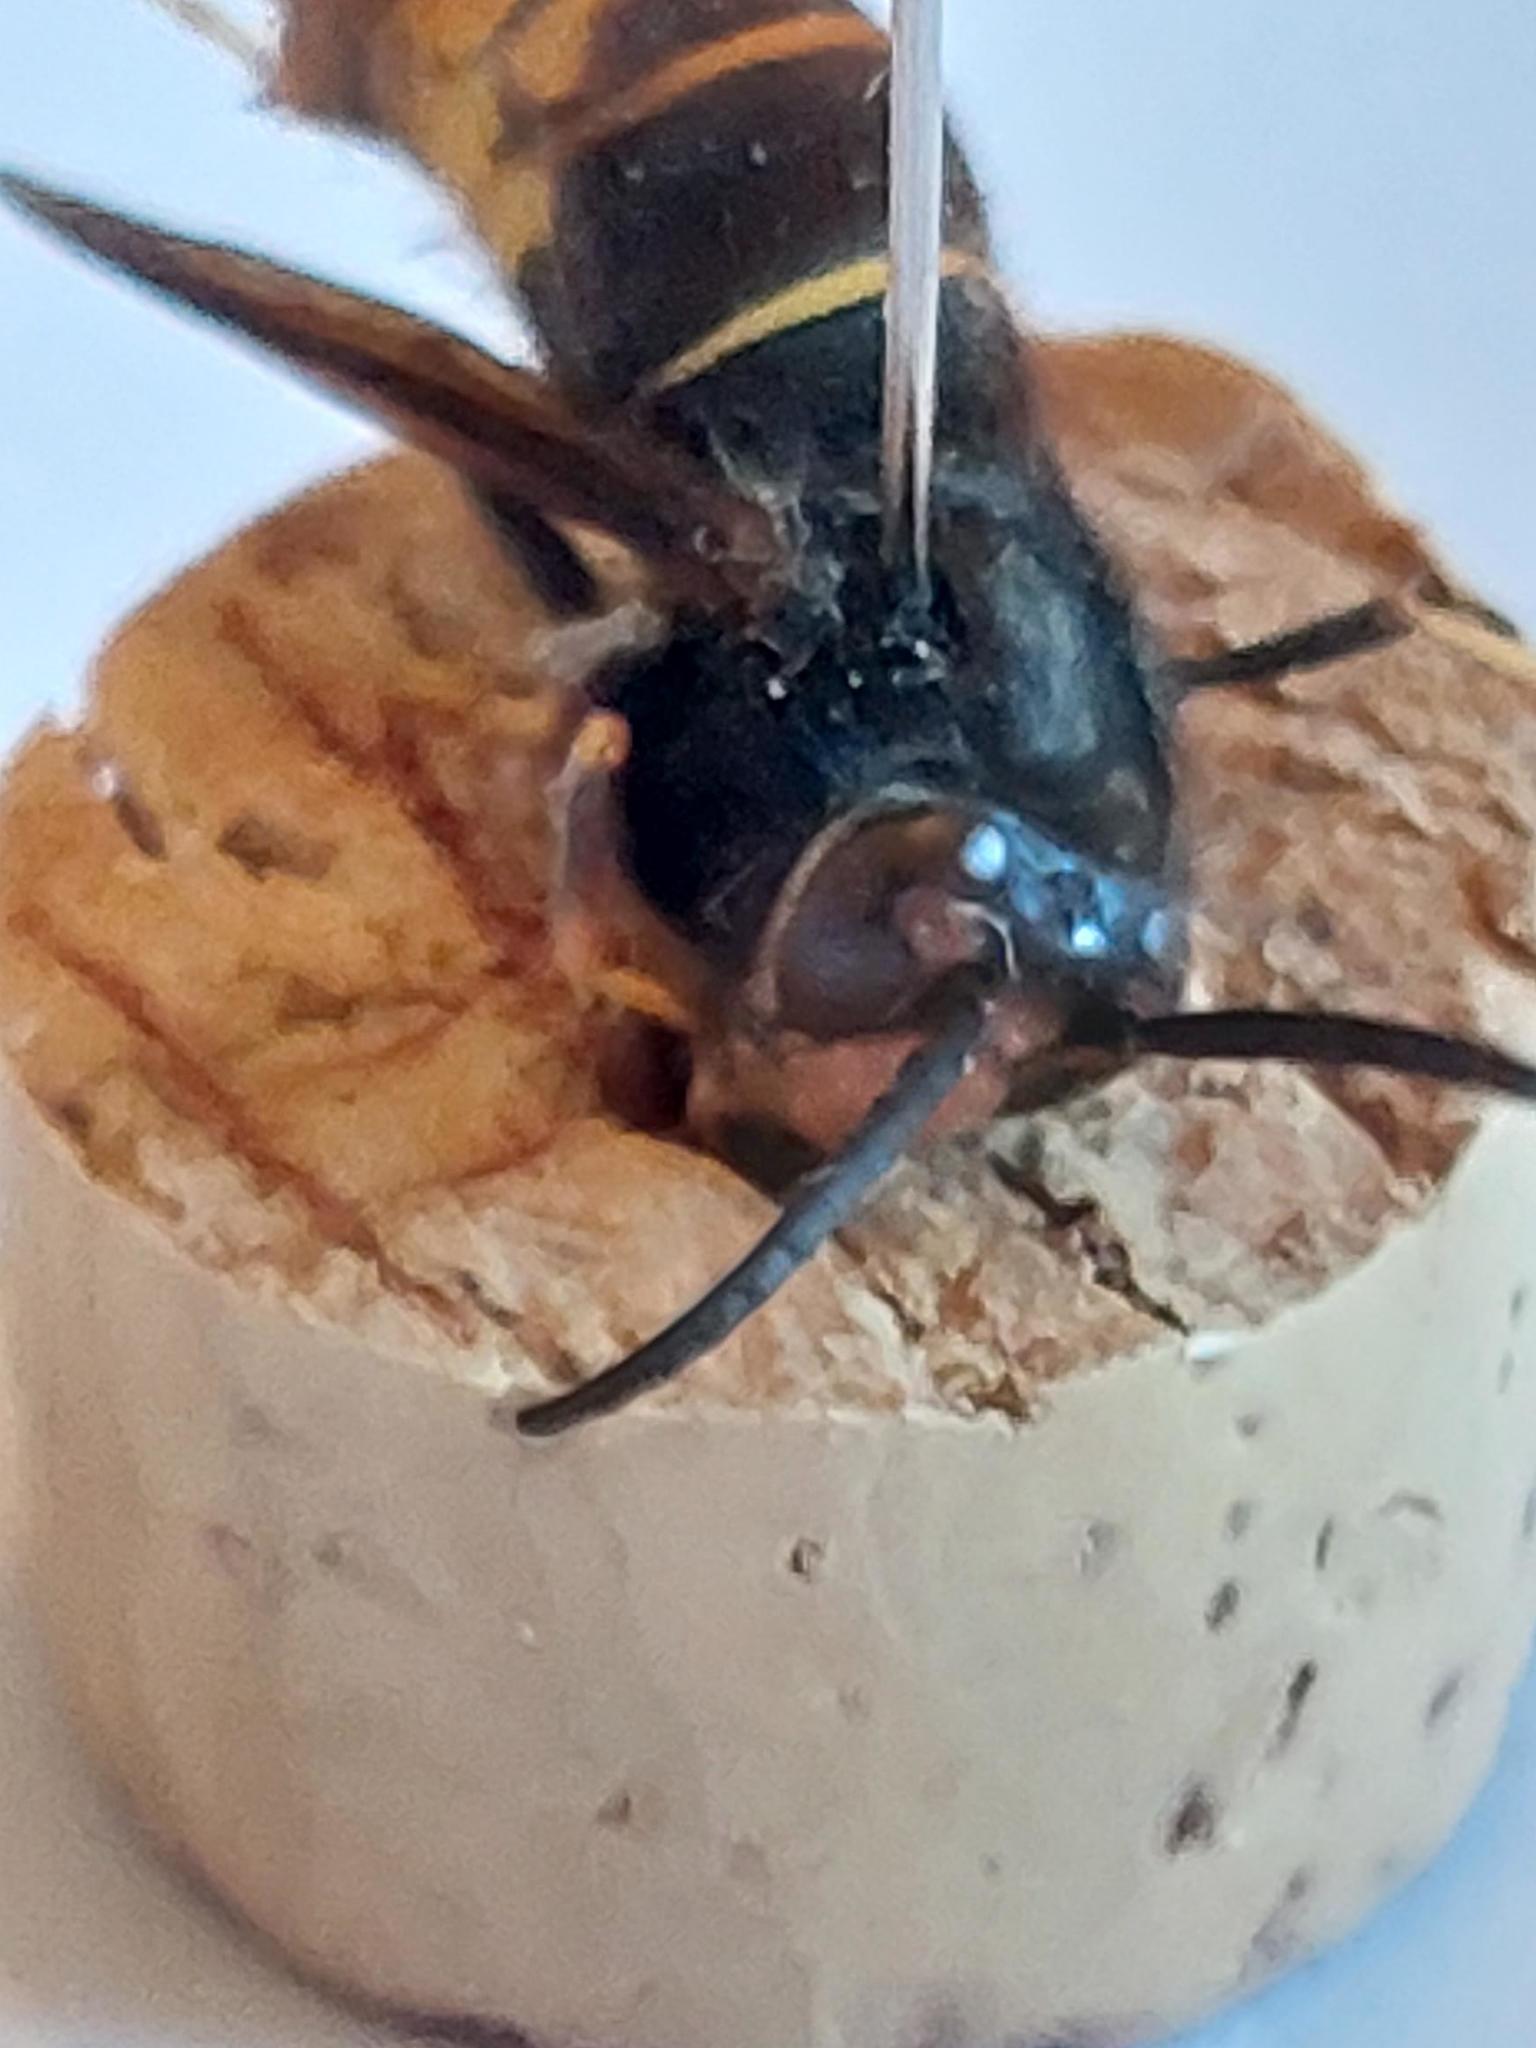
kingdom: Animalia
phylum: Arthropoda
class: Insecta
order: Hymenoptera
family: Vespidae
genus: Vespa
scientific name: Vespa velutina
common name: Asian hornet
